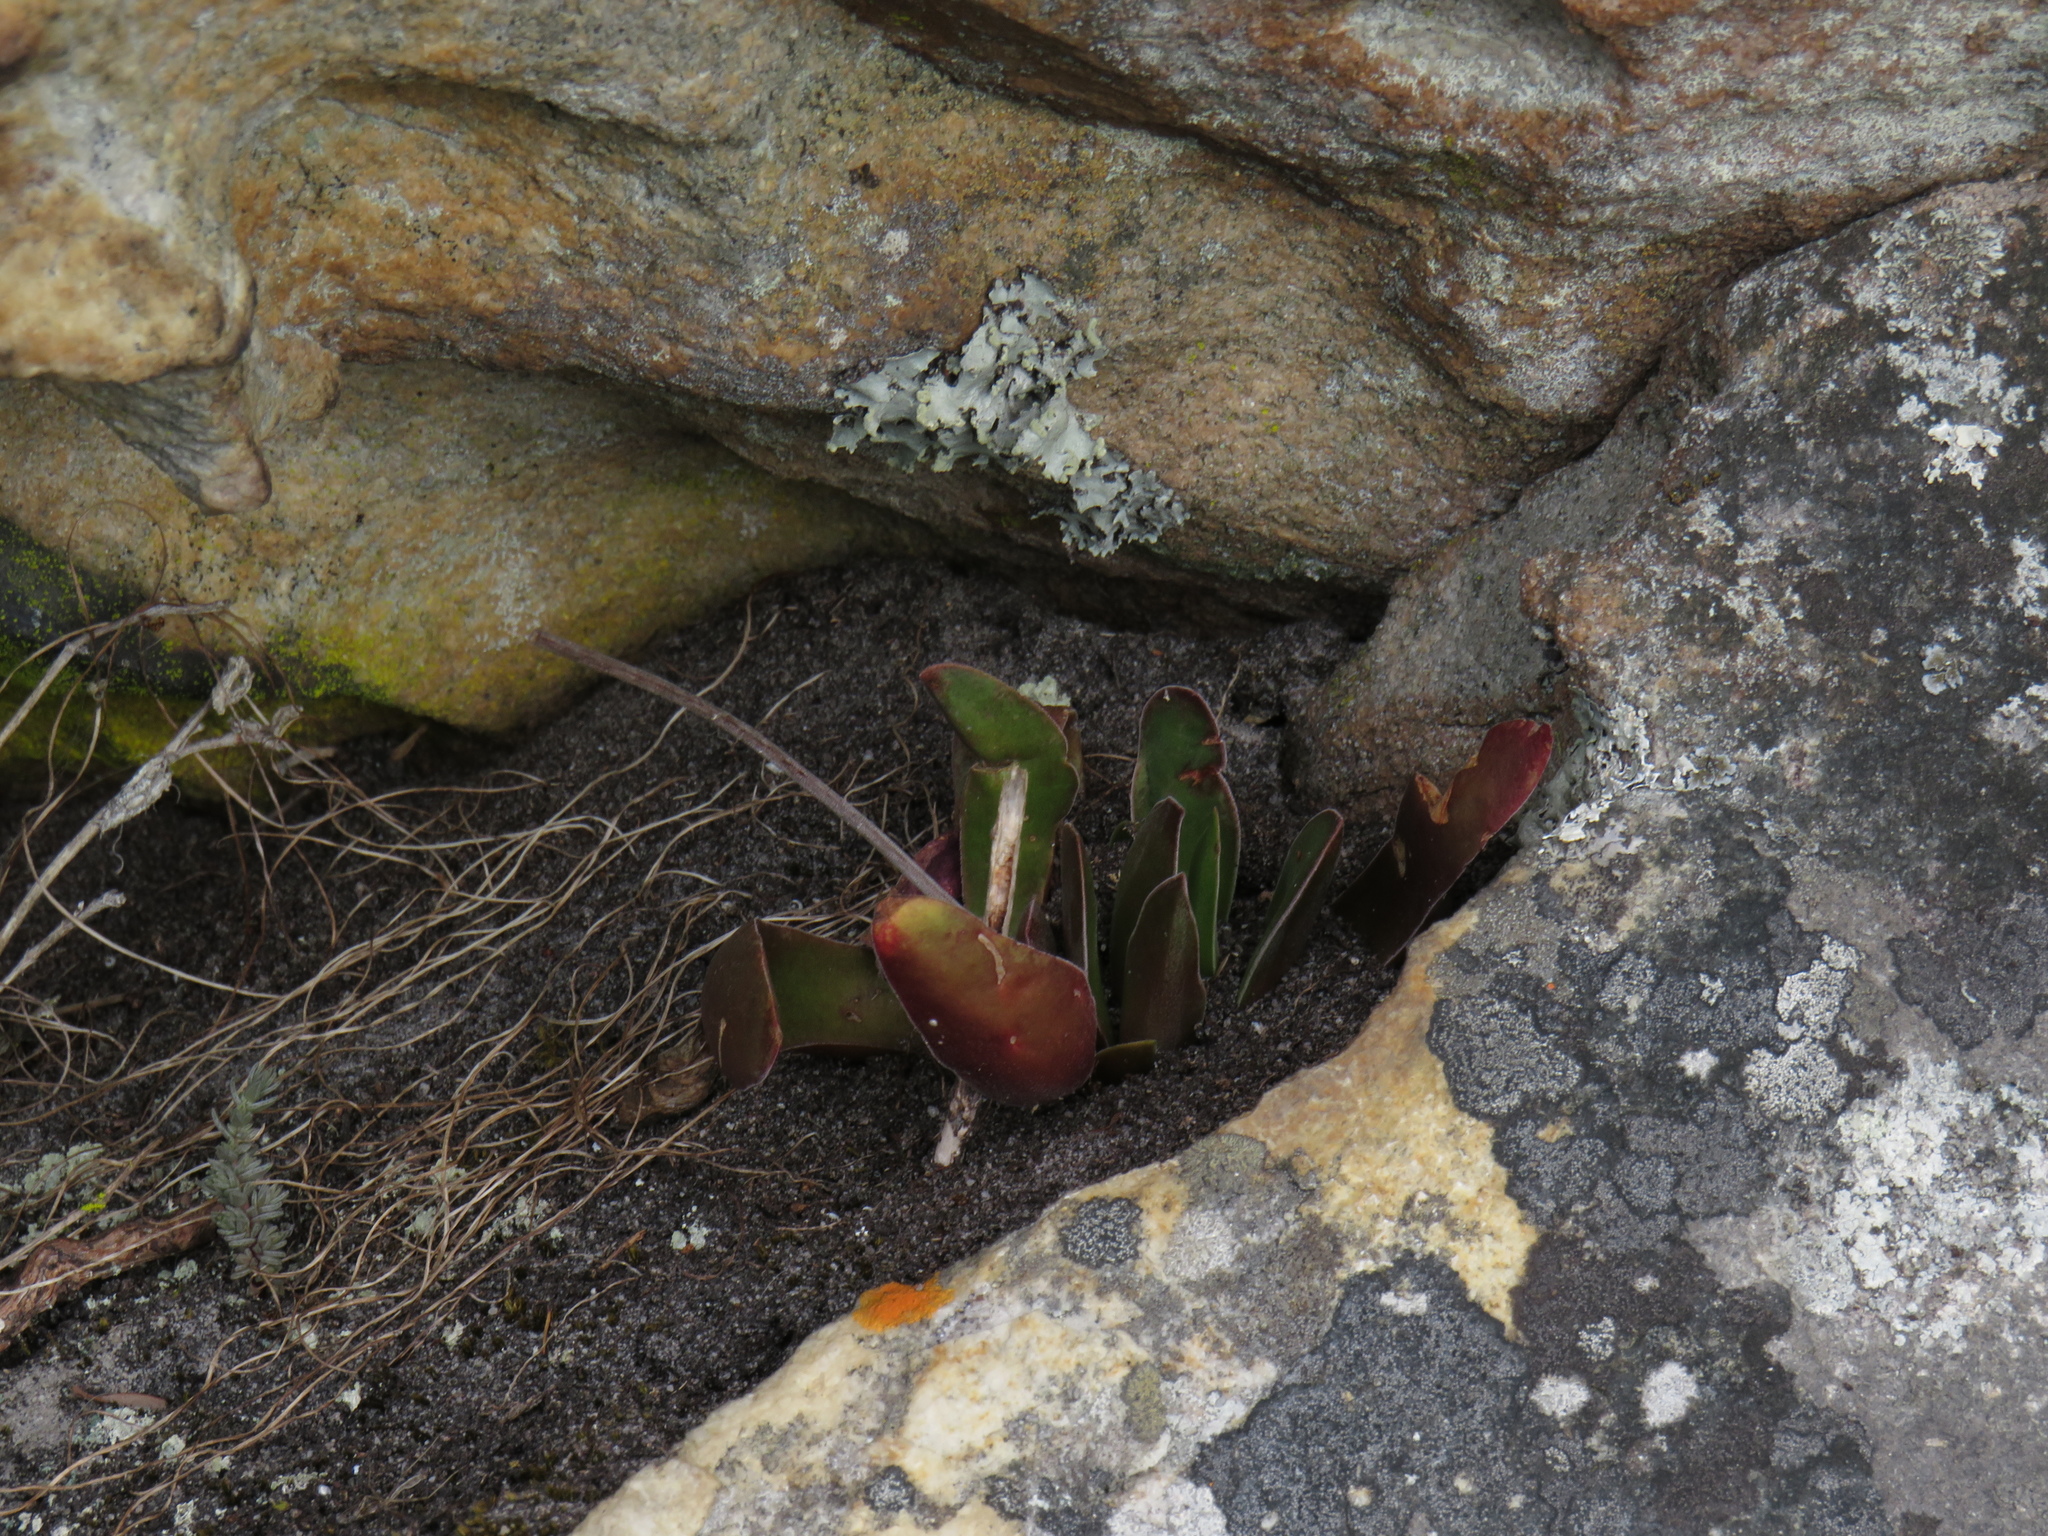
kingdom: Plantae
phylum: Tracheophyta
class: Magnoliopsida
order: Saxifragales
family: Crassulaceae
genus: Crassula
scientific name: Crassula nudicaulis
